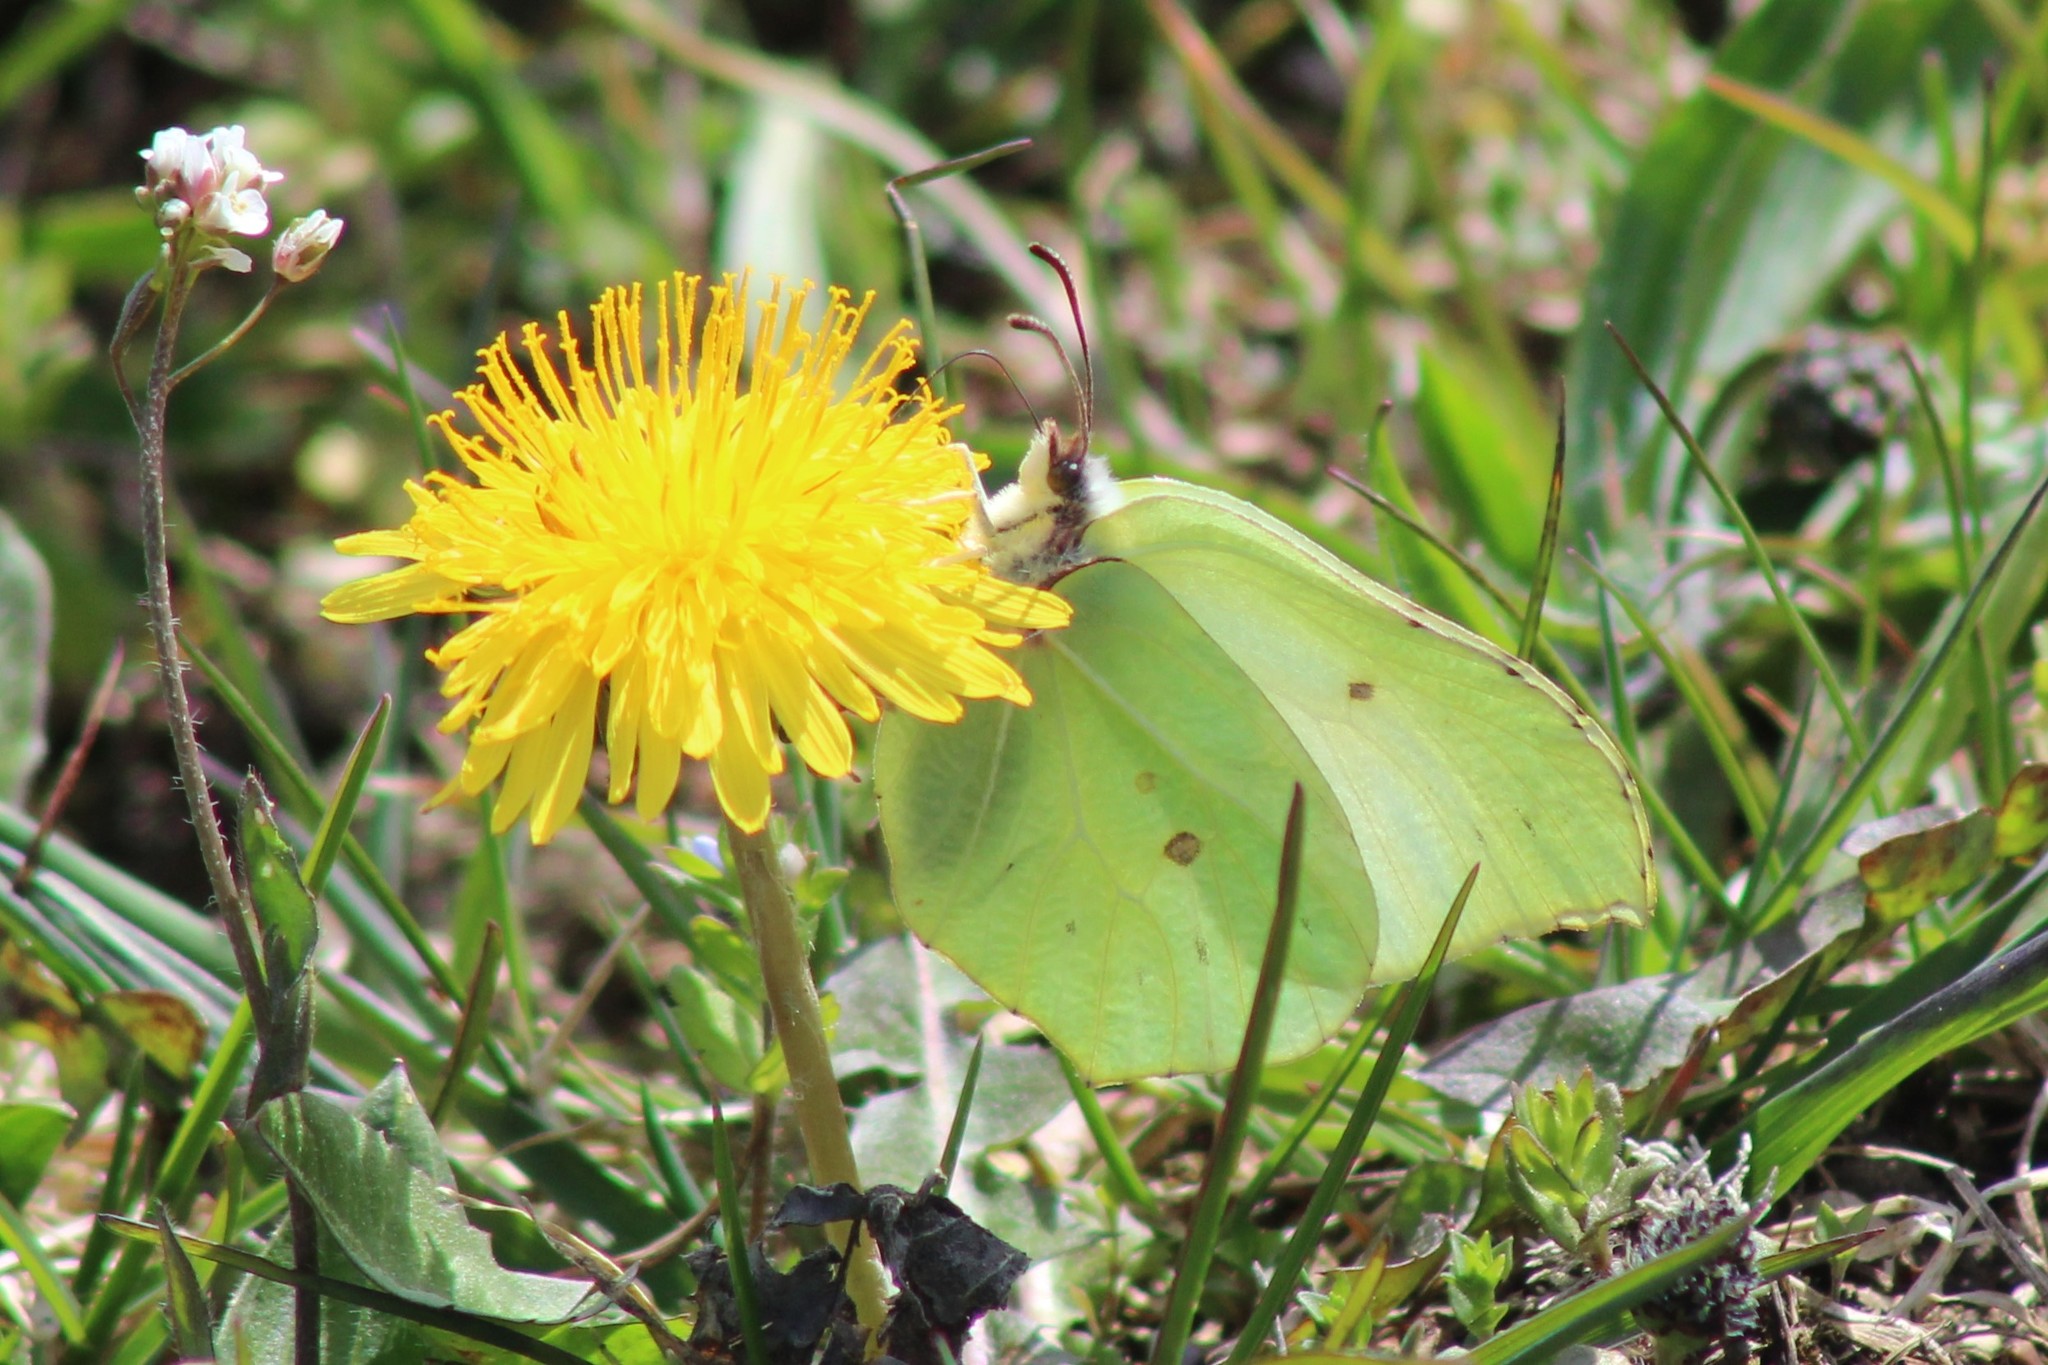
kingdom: Animalia
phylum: Arthropoda
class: Insecta
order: Lepidoptera
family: Pieridae
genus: Gonepteryx
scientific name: Gonepteryx rhamni
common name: Brimstone
